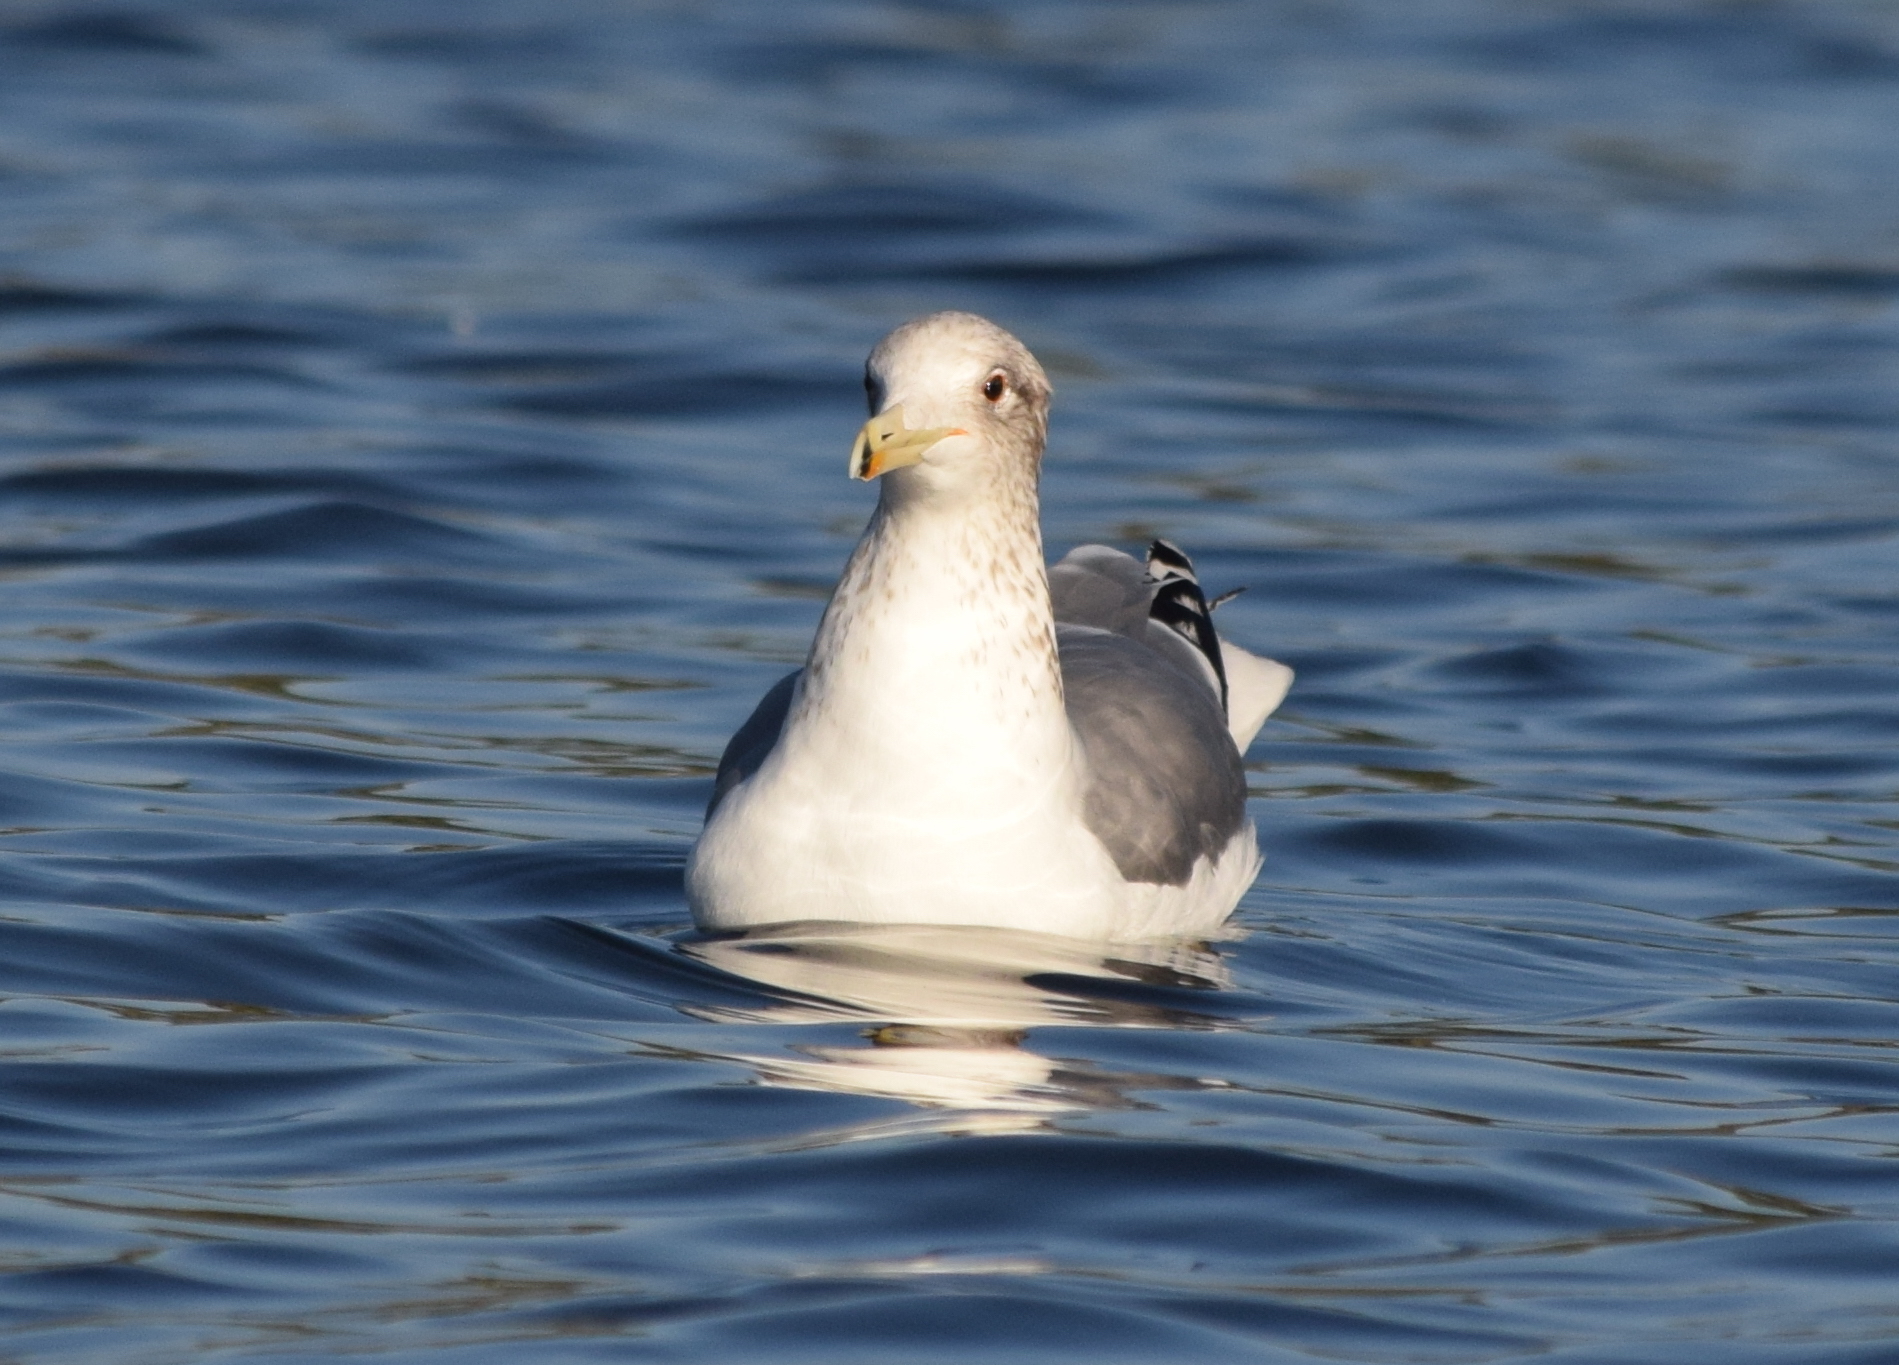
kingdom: Animalia
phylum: Chordata
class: Aves
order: Charadriiformes
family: Laridae
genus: Larus
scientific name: Larus californicus
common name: California gull
